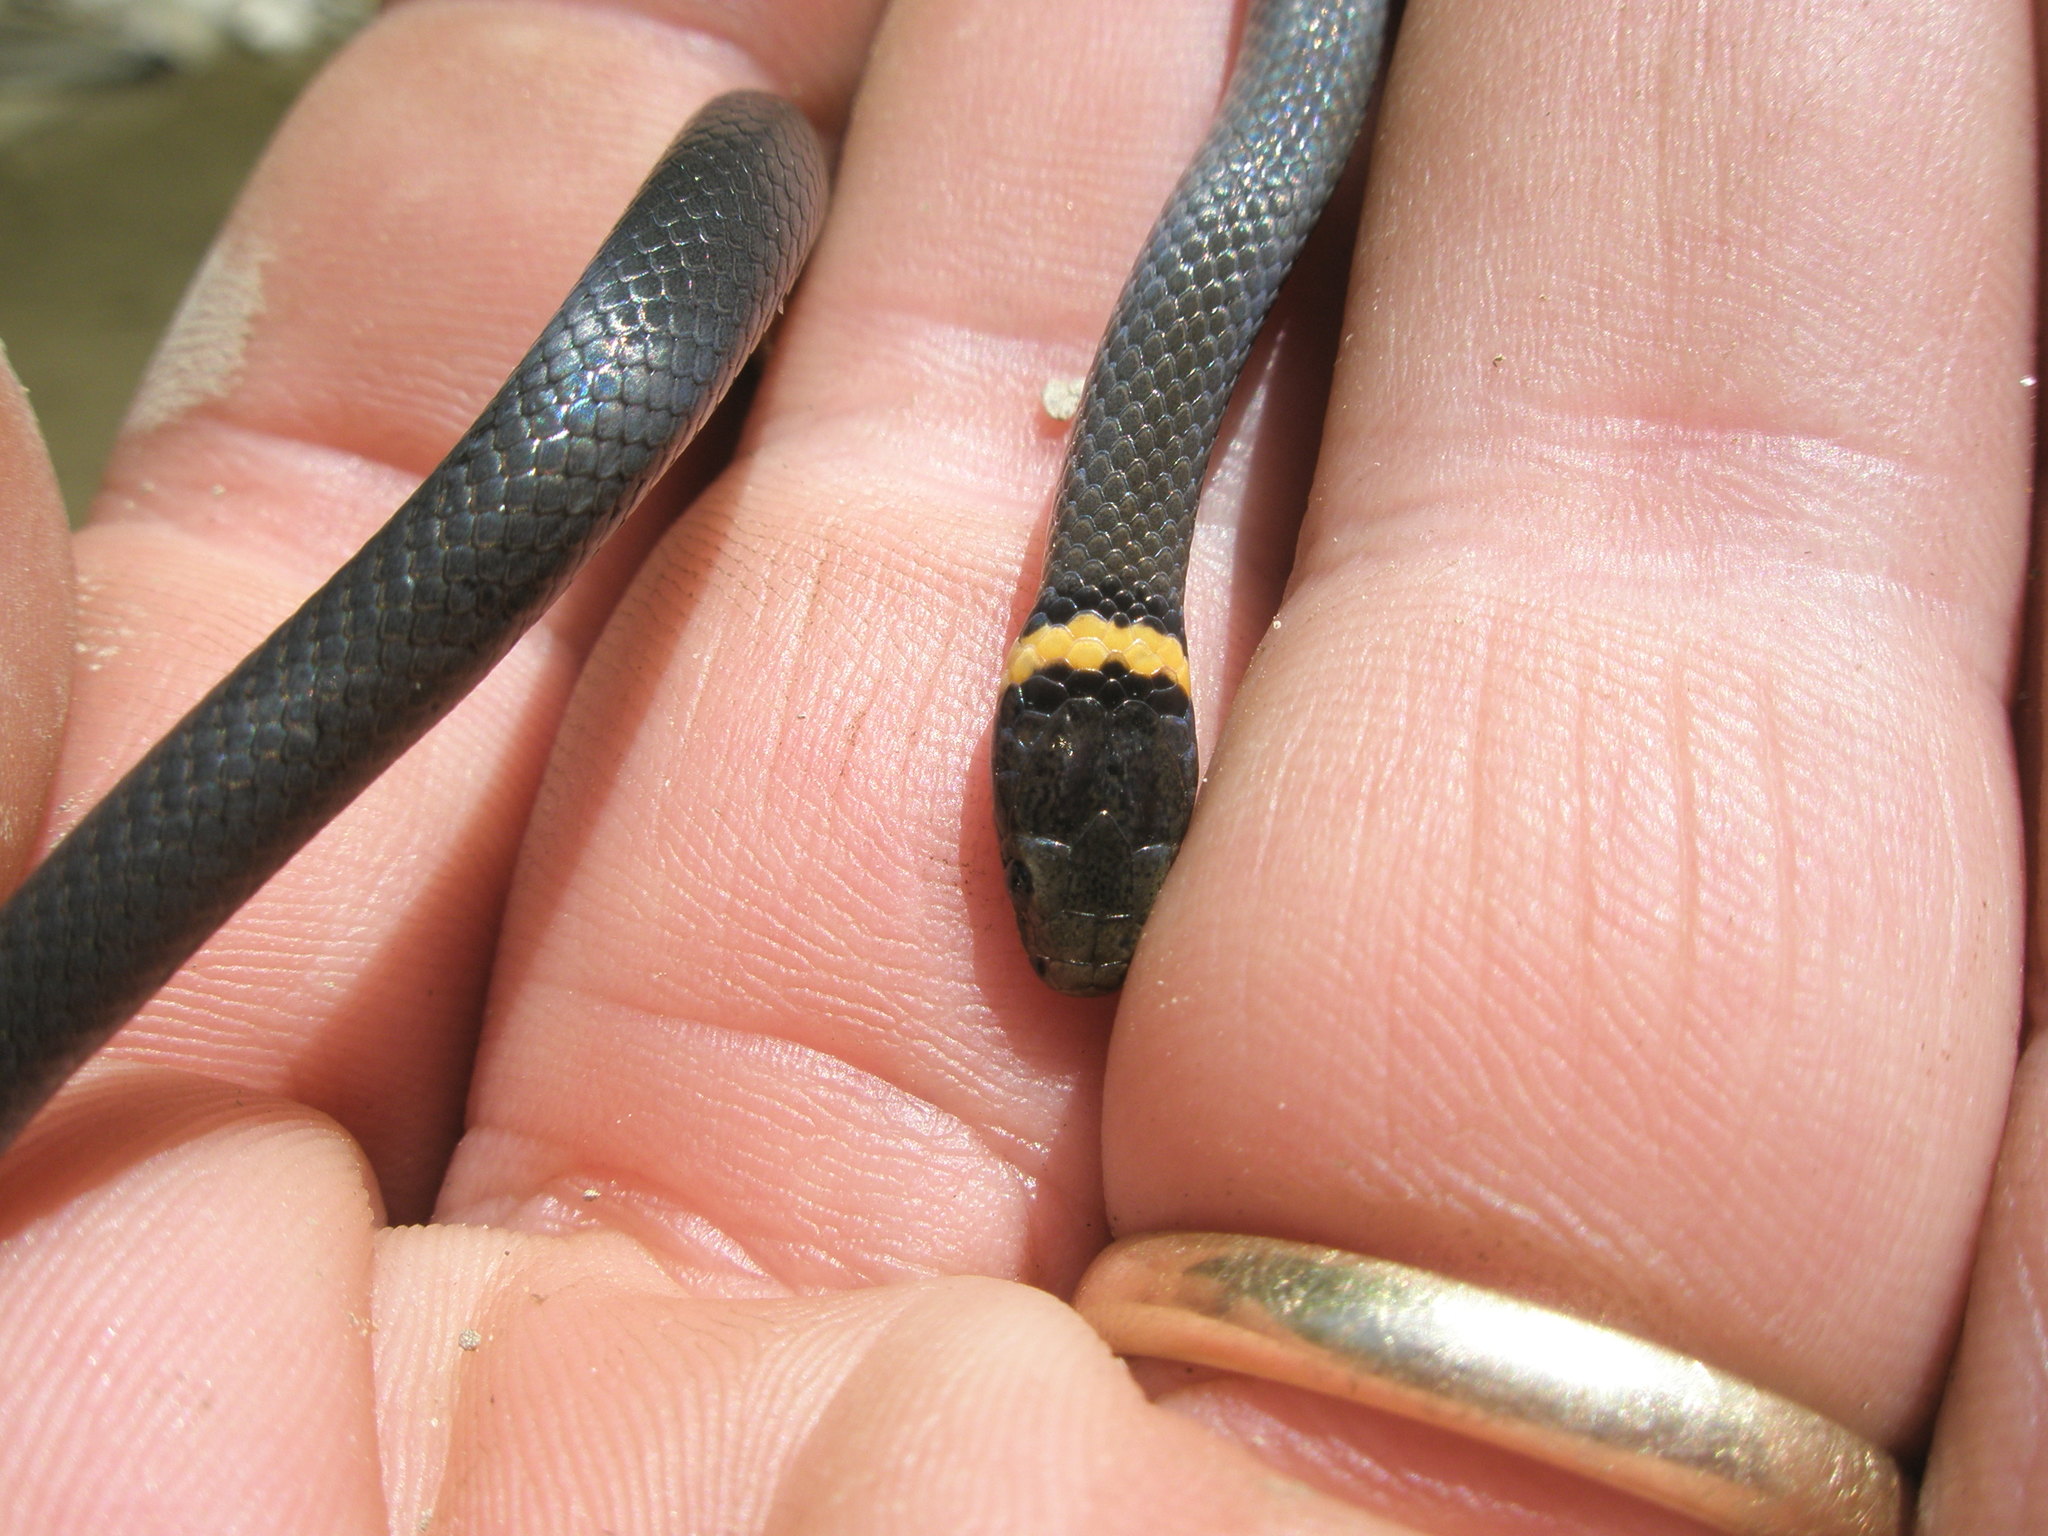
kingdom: Animalia
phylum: Chordata
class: Squamata
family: Colubridae
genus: Diadophis
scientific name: Diadophis punctatus
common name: Ringneck snake
